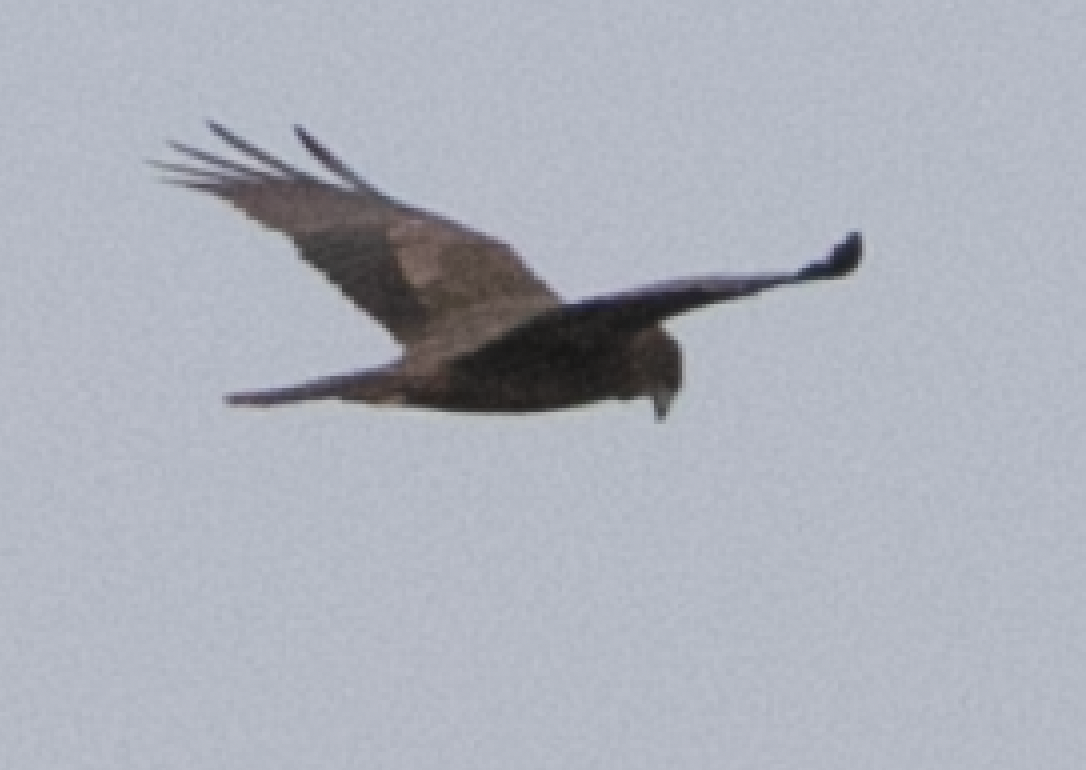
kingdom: Animalia
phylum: Chordata
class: Aves
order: Accipitriformes
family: Accipitridae
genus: Circus
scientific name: Circus aeruginosus
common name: Western marsh harrier
